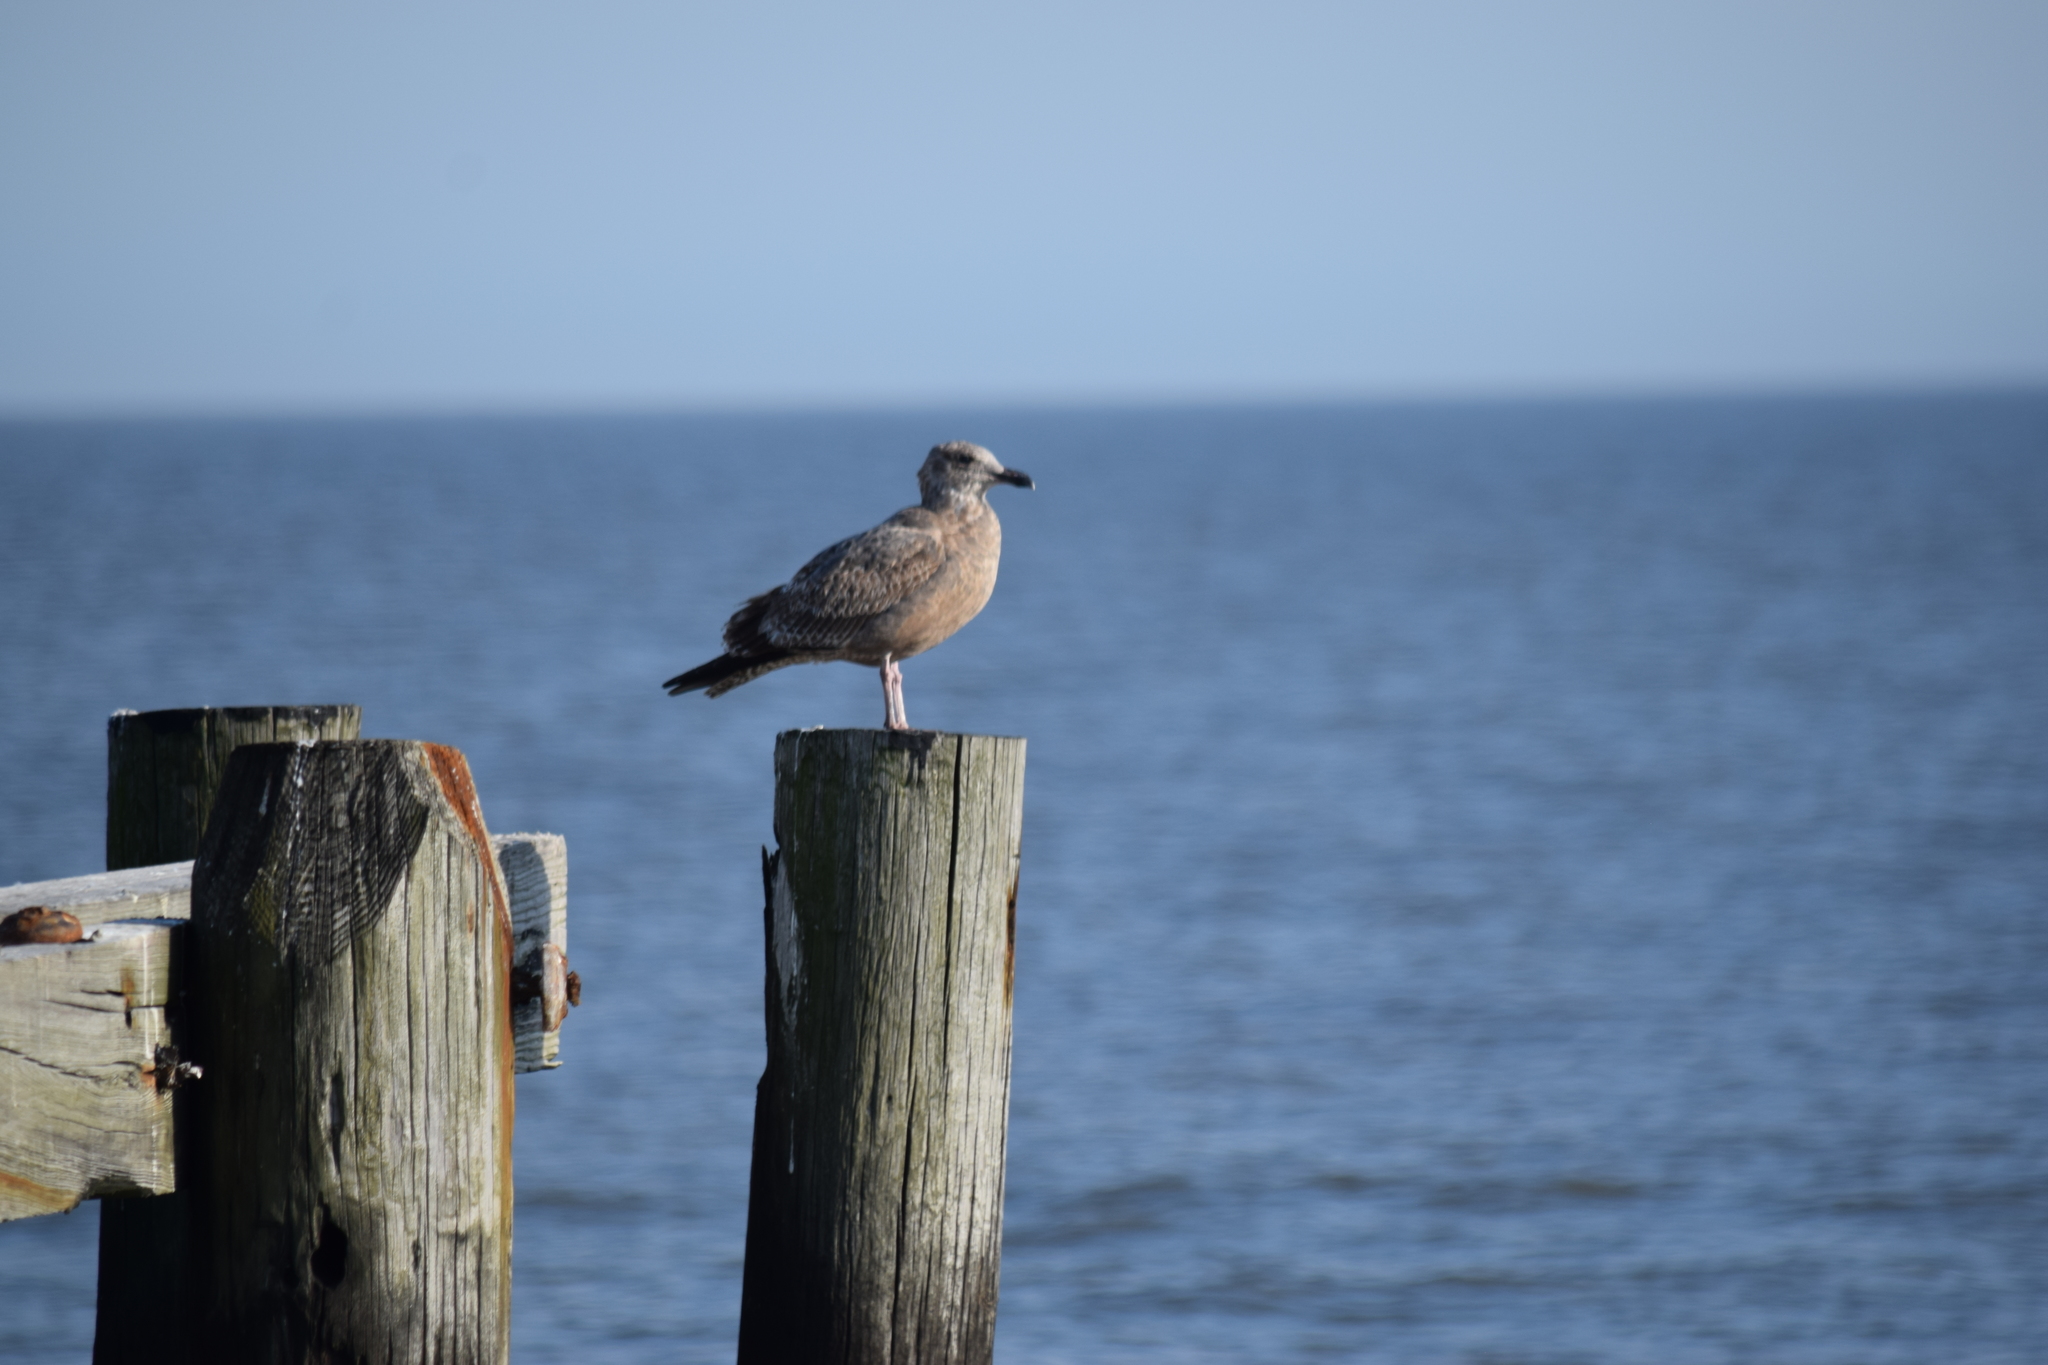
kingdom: Animalia
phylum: Chordata
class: Aves
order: Charadriiformes
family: Laridae
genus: Larus
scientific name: Larus argentatus
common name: Herring gull
